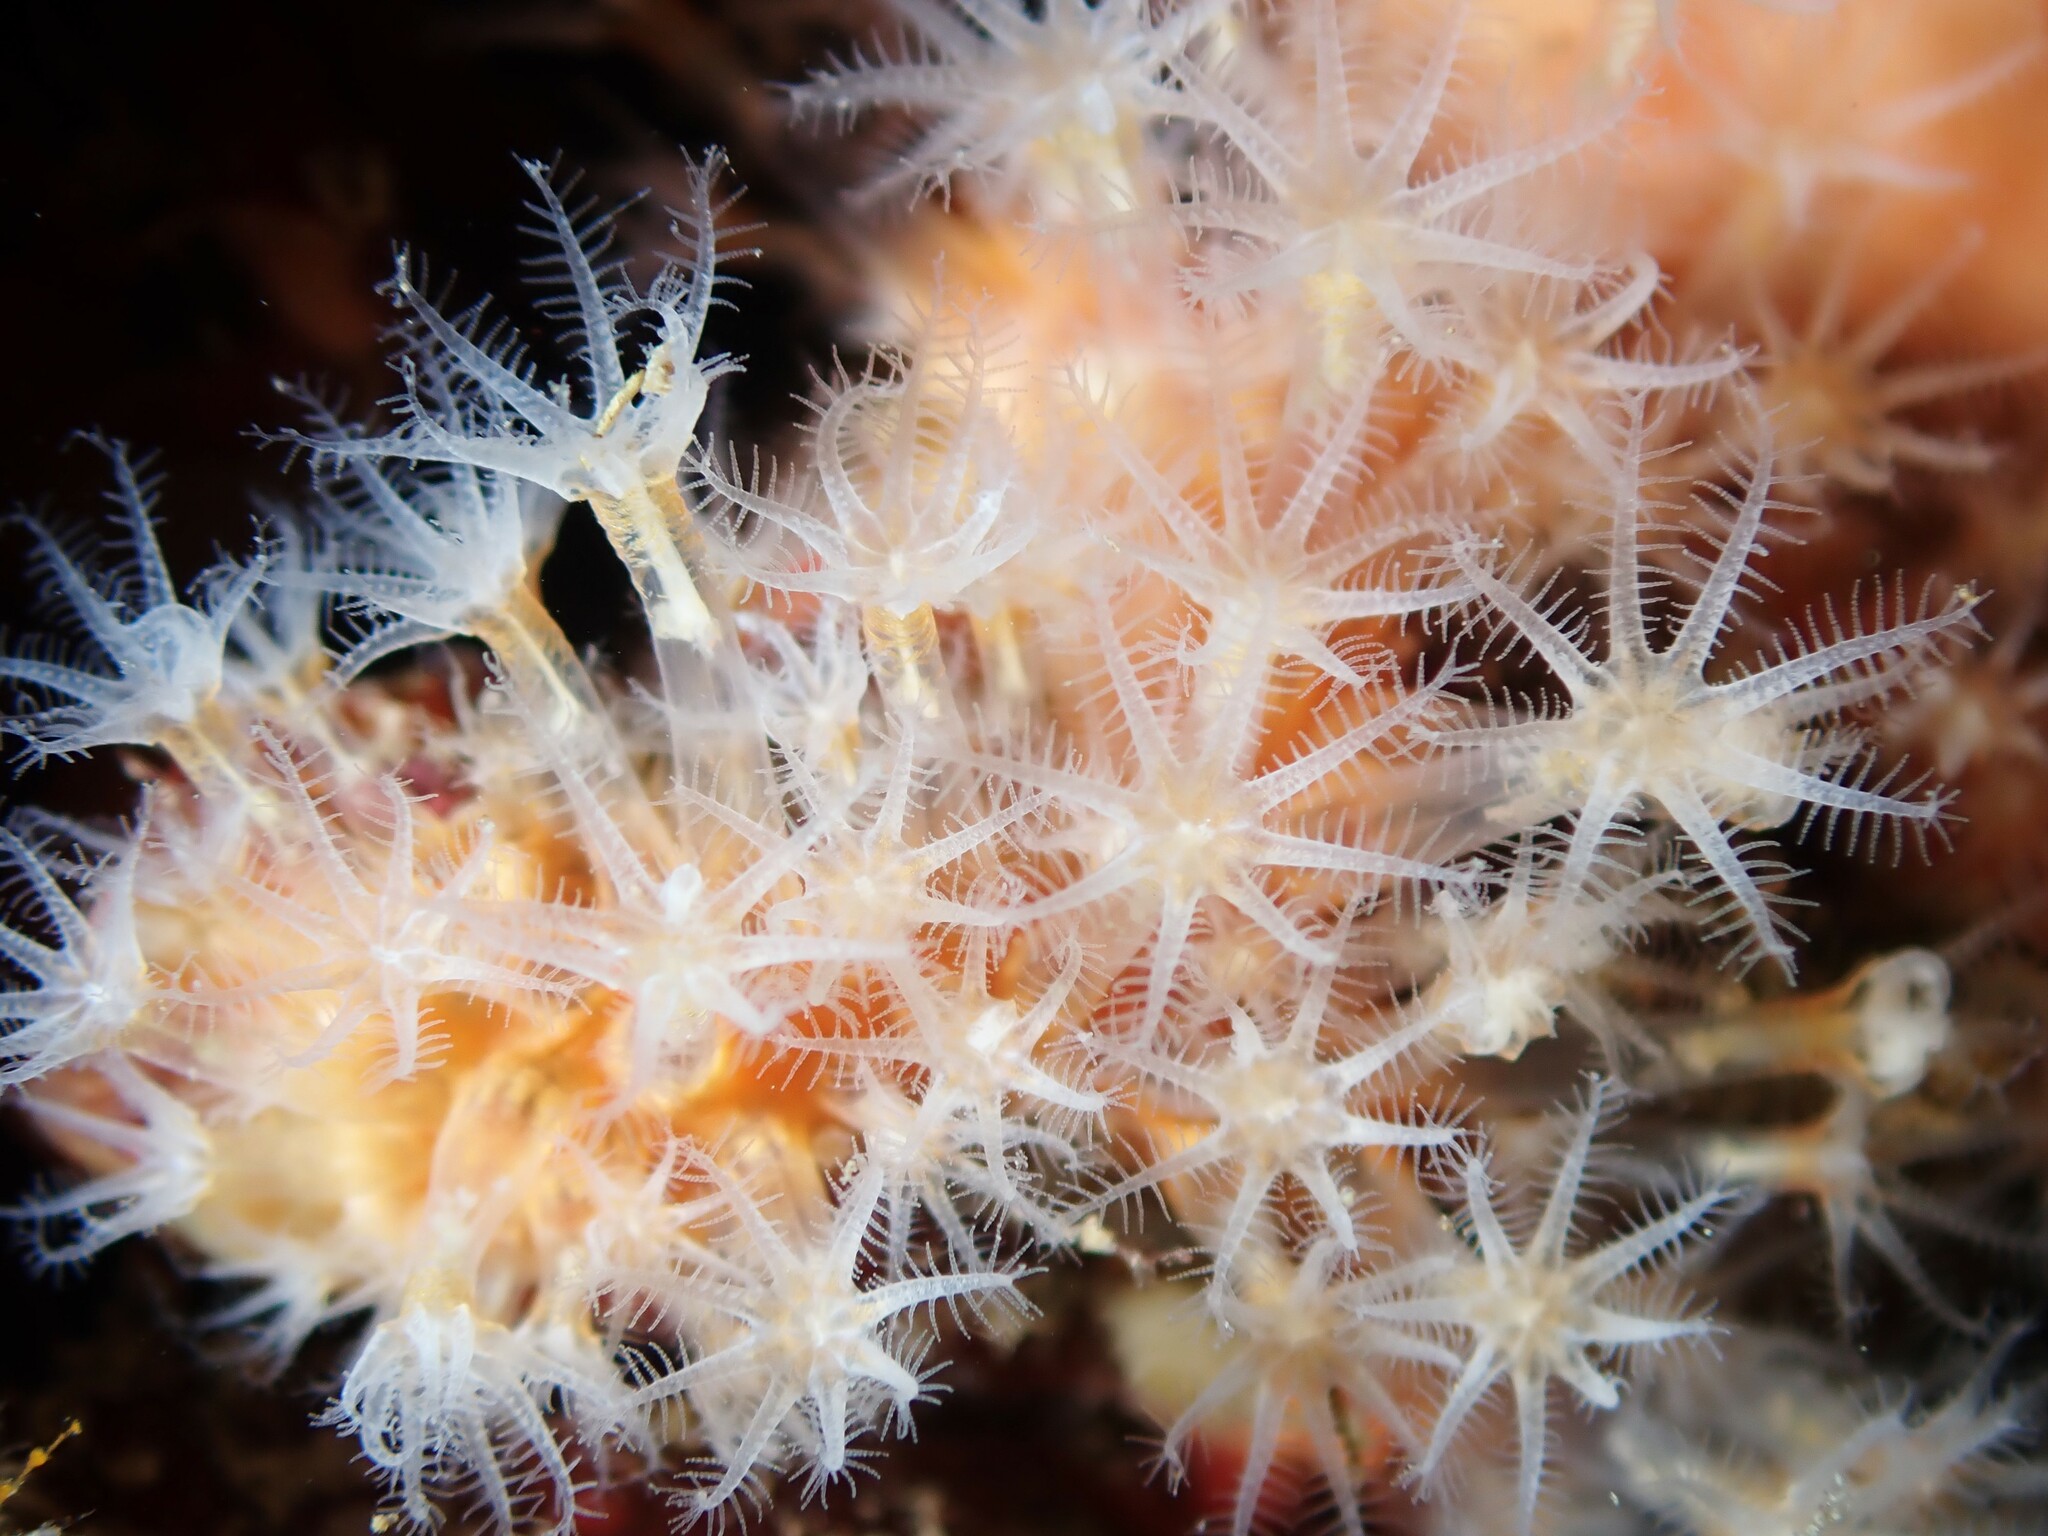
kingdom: Animalia
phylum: Cnidaria
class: Anthozoa
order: Malacalcyonacea
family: Alcyoniidae
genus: Ushanaia
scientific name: Ushanaia fervens
